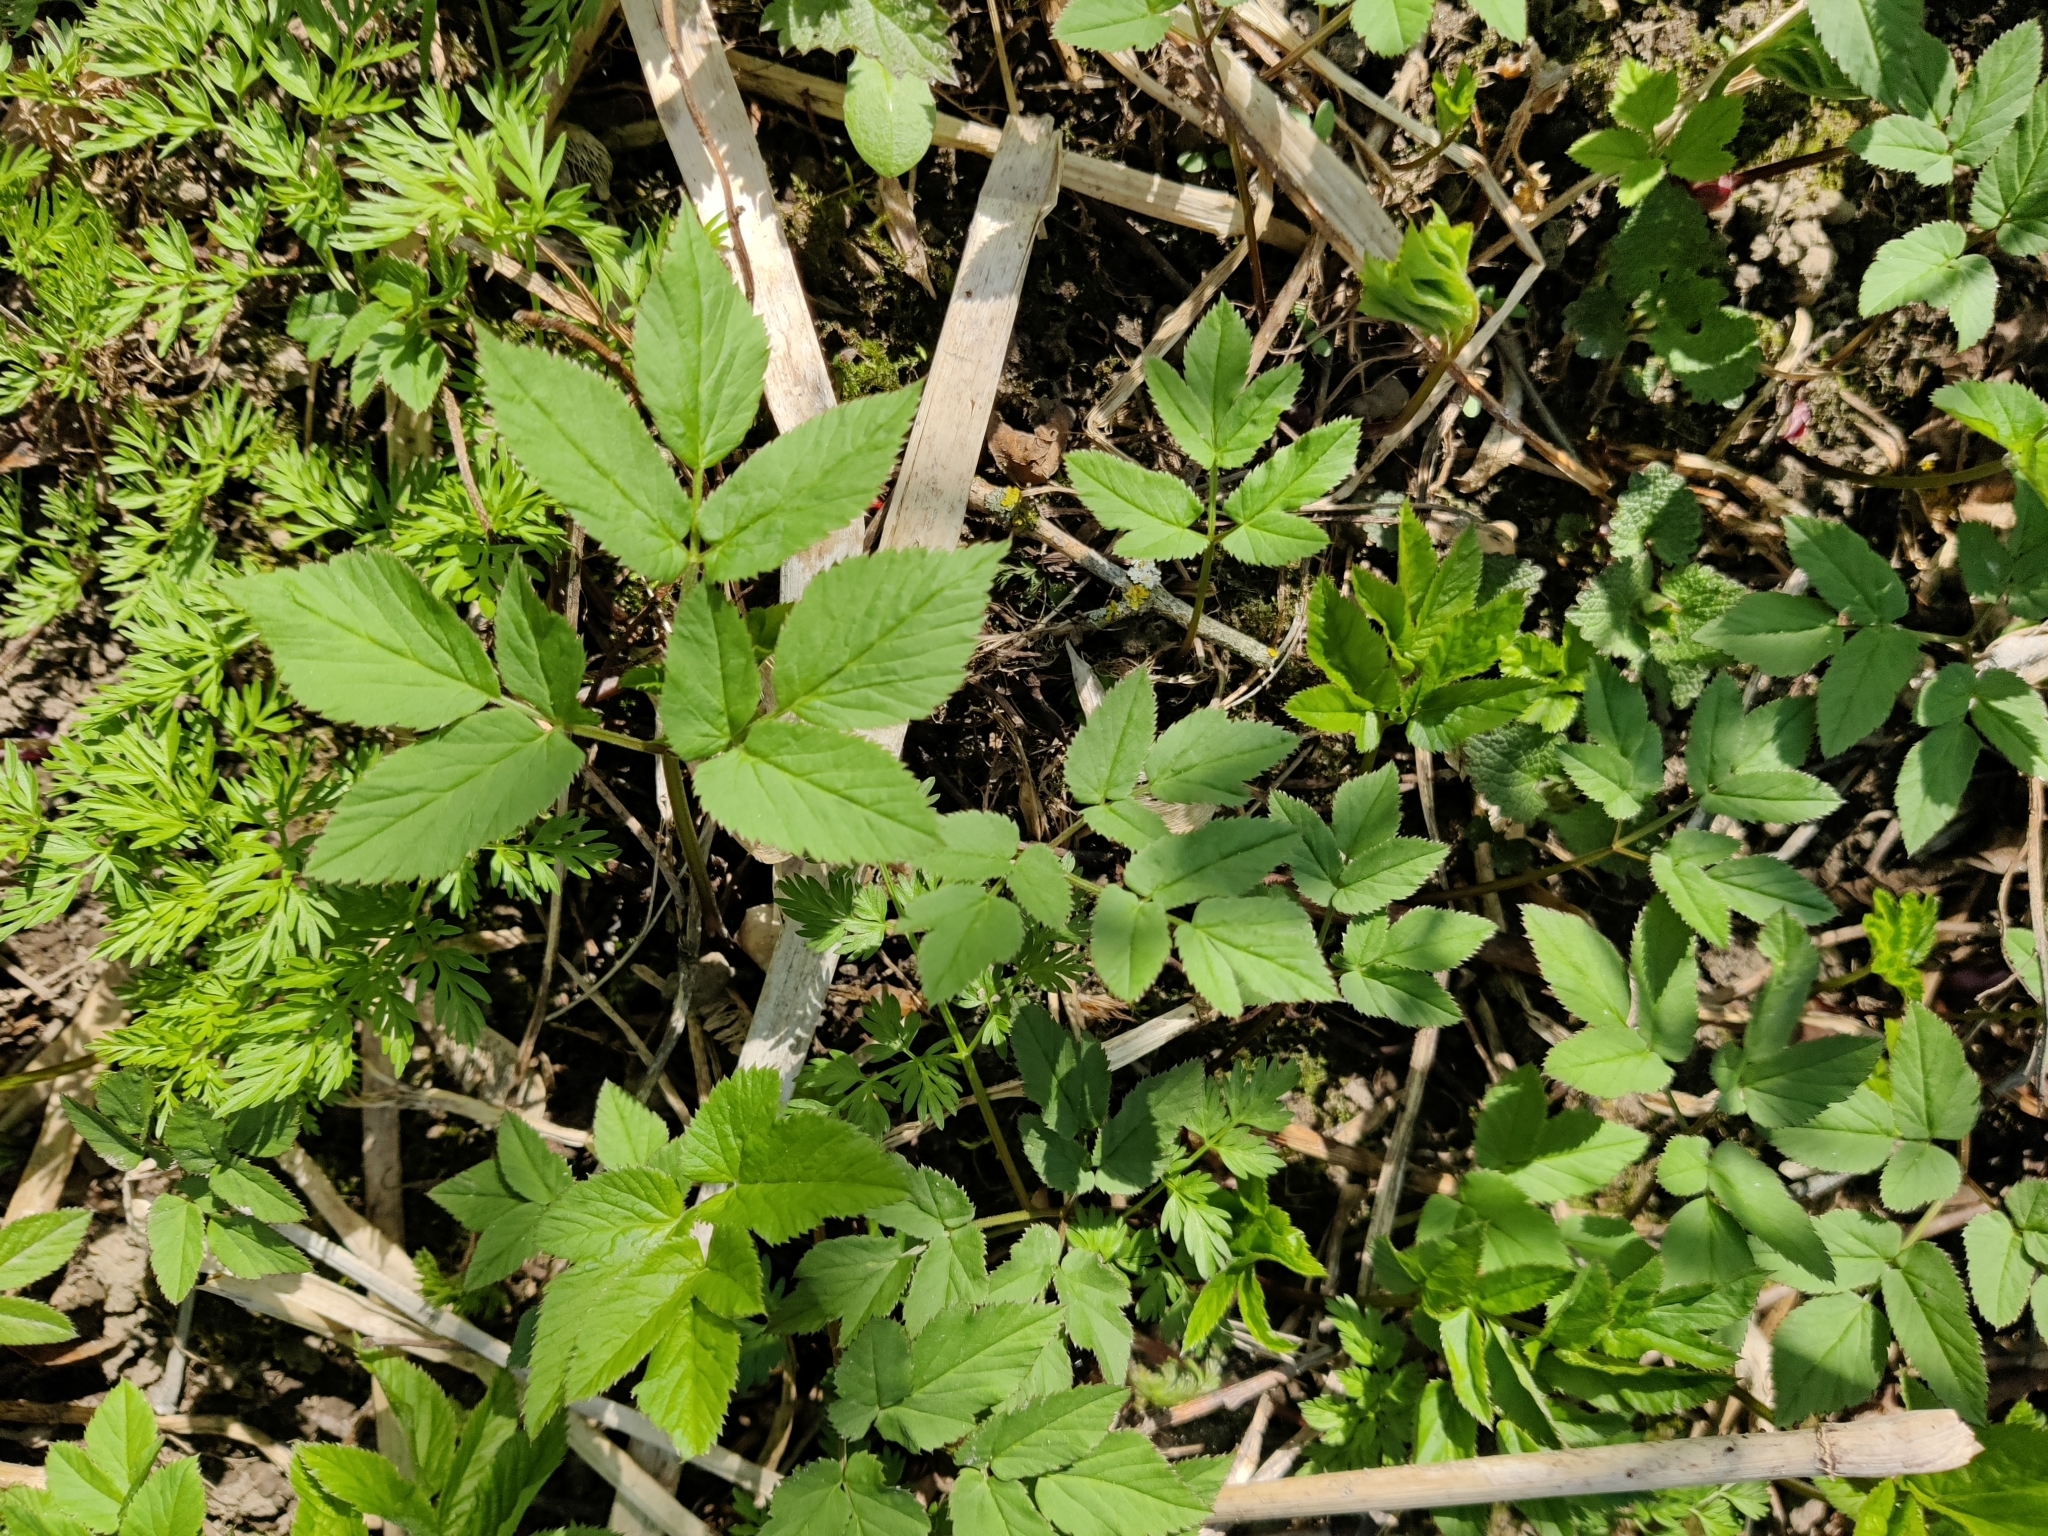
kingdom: Plantae
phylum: Tracheophyta
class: Magnoliopsida
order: Apiales
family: Apiaceae
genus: Aegopodium
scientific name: Aegopodium podagraria
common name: Ground-elder
